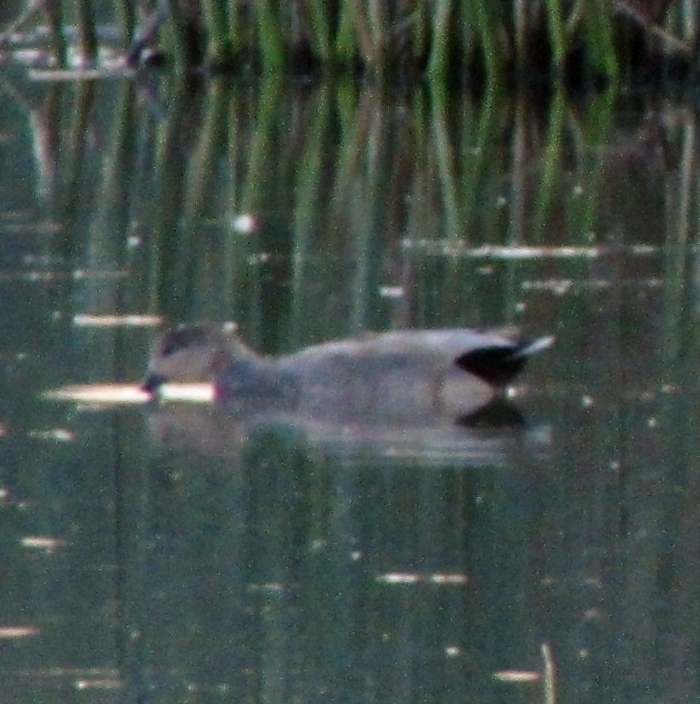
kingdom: Animalia
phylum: Chordata
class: Aves
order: Anseriformes
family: Anatidae
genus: Mareca
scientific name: Mareca strepera
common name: Gadwall
